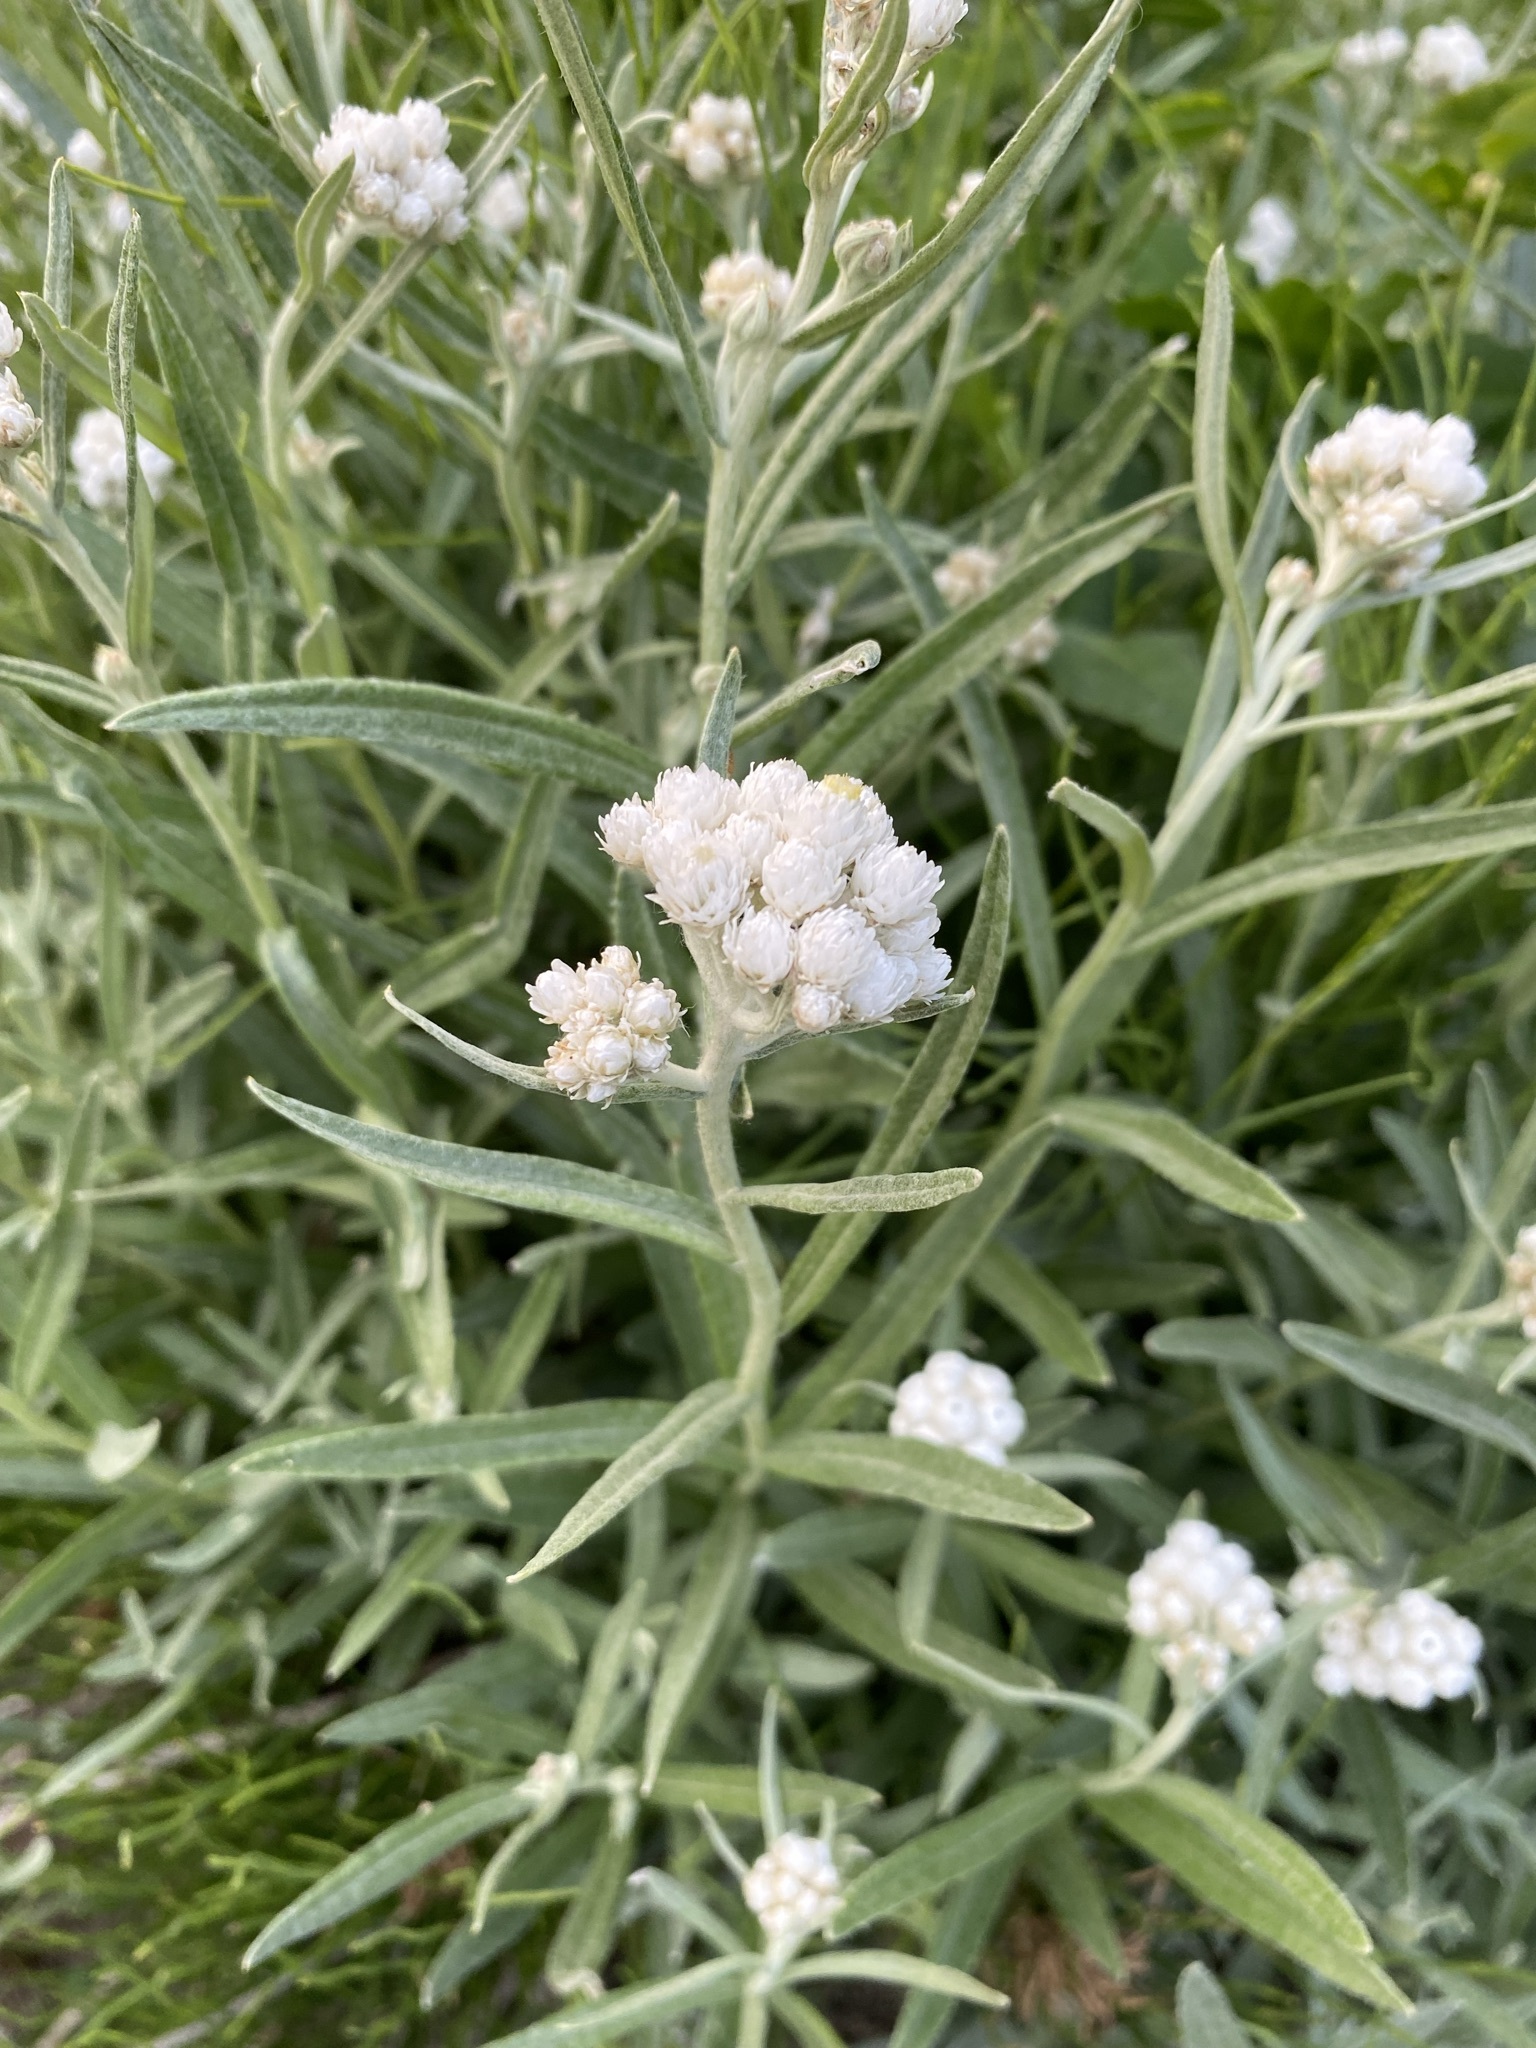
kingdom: Plantae
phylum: Tracheophyta
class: Magnoliopsida
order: Asterales
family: Asteraceae
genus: Anaphalis
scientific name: Anaphalis margaritacea
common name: Pearly everlasting
